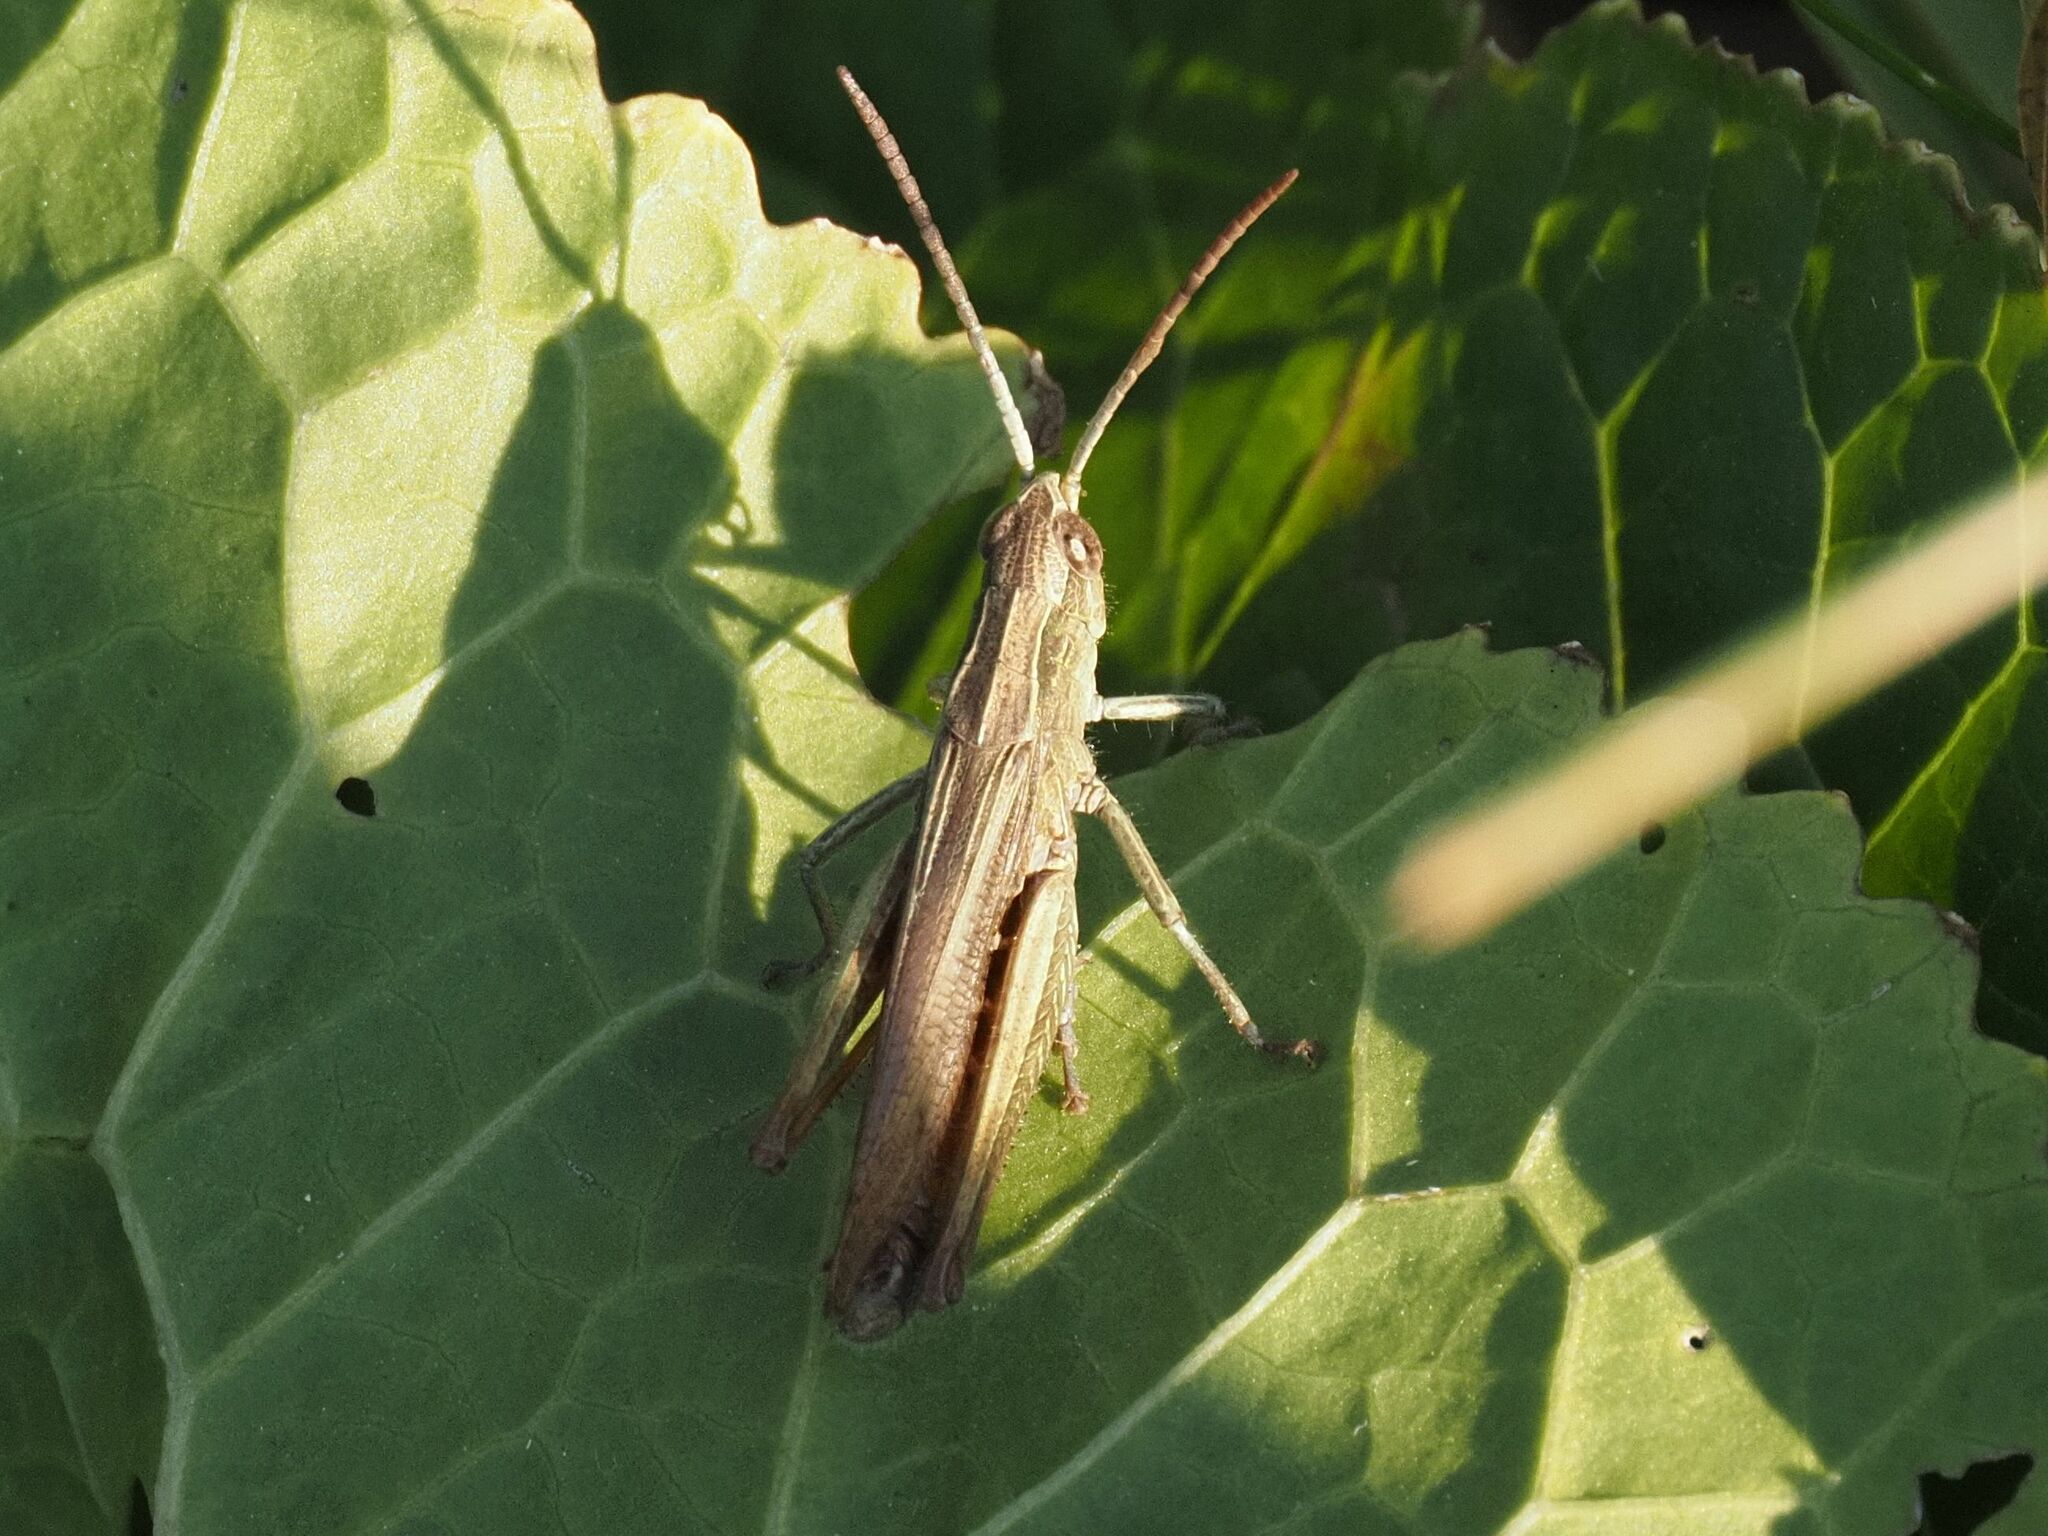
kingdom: Animalia
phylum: Arthropoda
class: Insecta
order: Orthoptera
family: Acrididae
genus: Chorthippus
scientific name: Chorthippus dorsatus
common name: Steppe grasshopper
